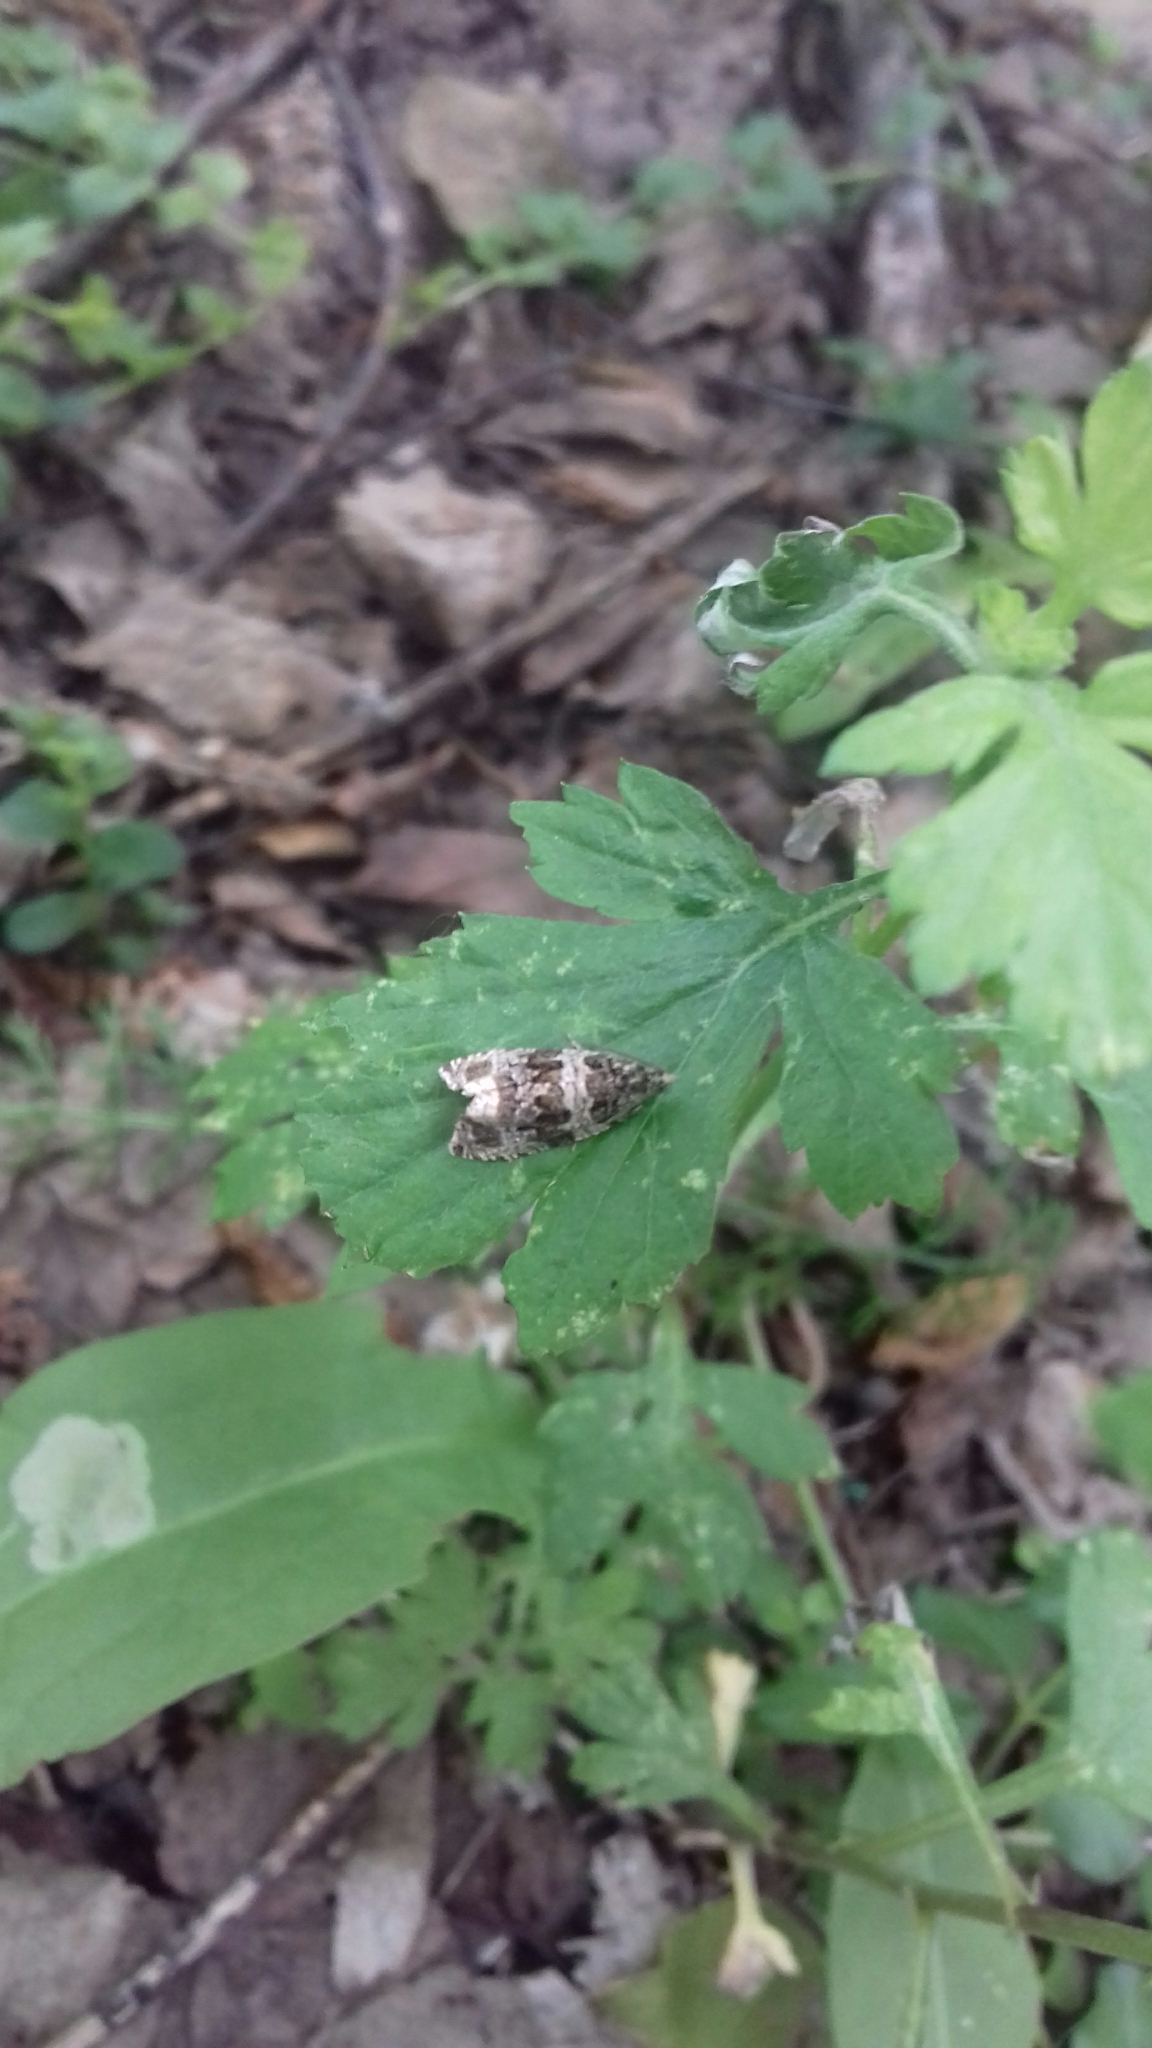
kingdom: Animalia
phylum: Arthropoda
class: Insecta
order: Lepidoptera
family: Tortricidae
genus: Syricoris
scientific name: Syricoris rivulana
